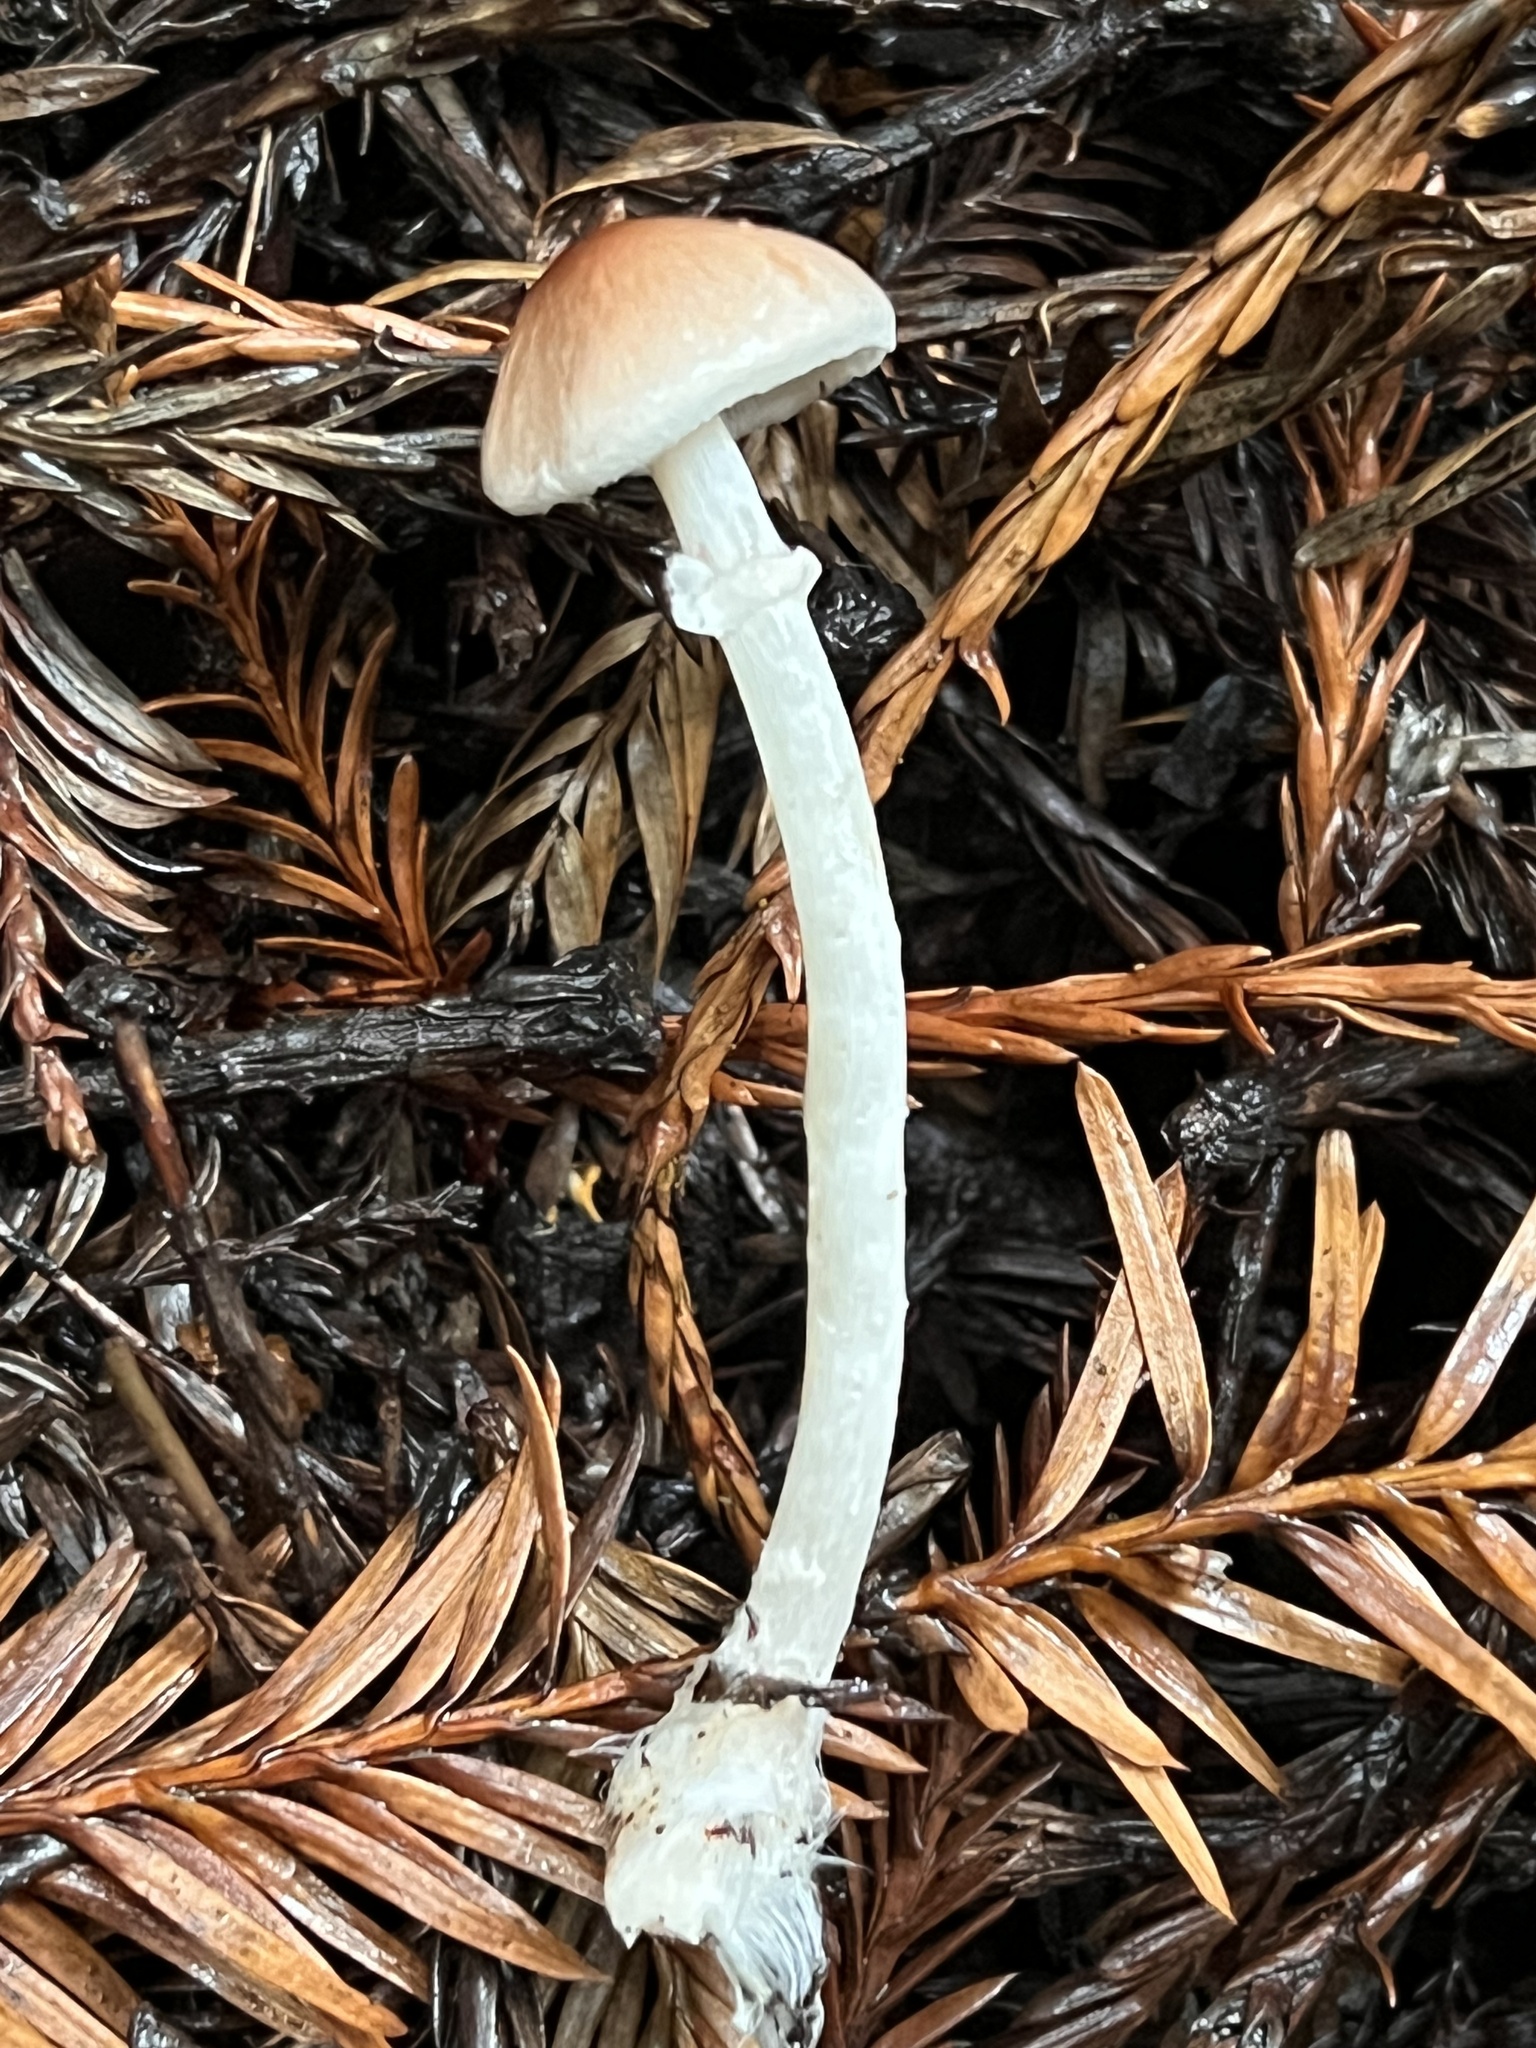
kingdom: Fungi
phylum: Basidiomycota
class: Agaricomycetes
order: Agaricales
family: Agaricaceae
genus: Lepiota
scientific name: Lepiota neophana
